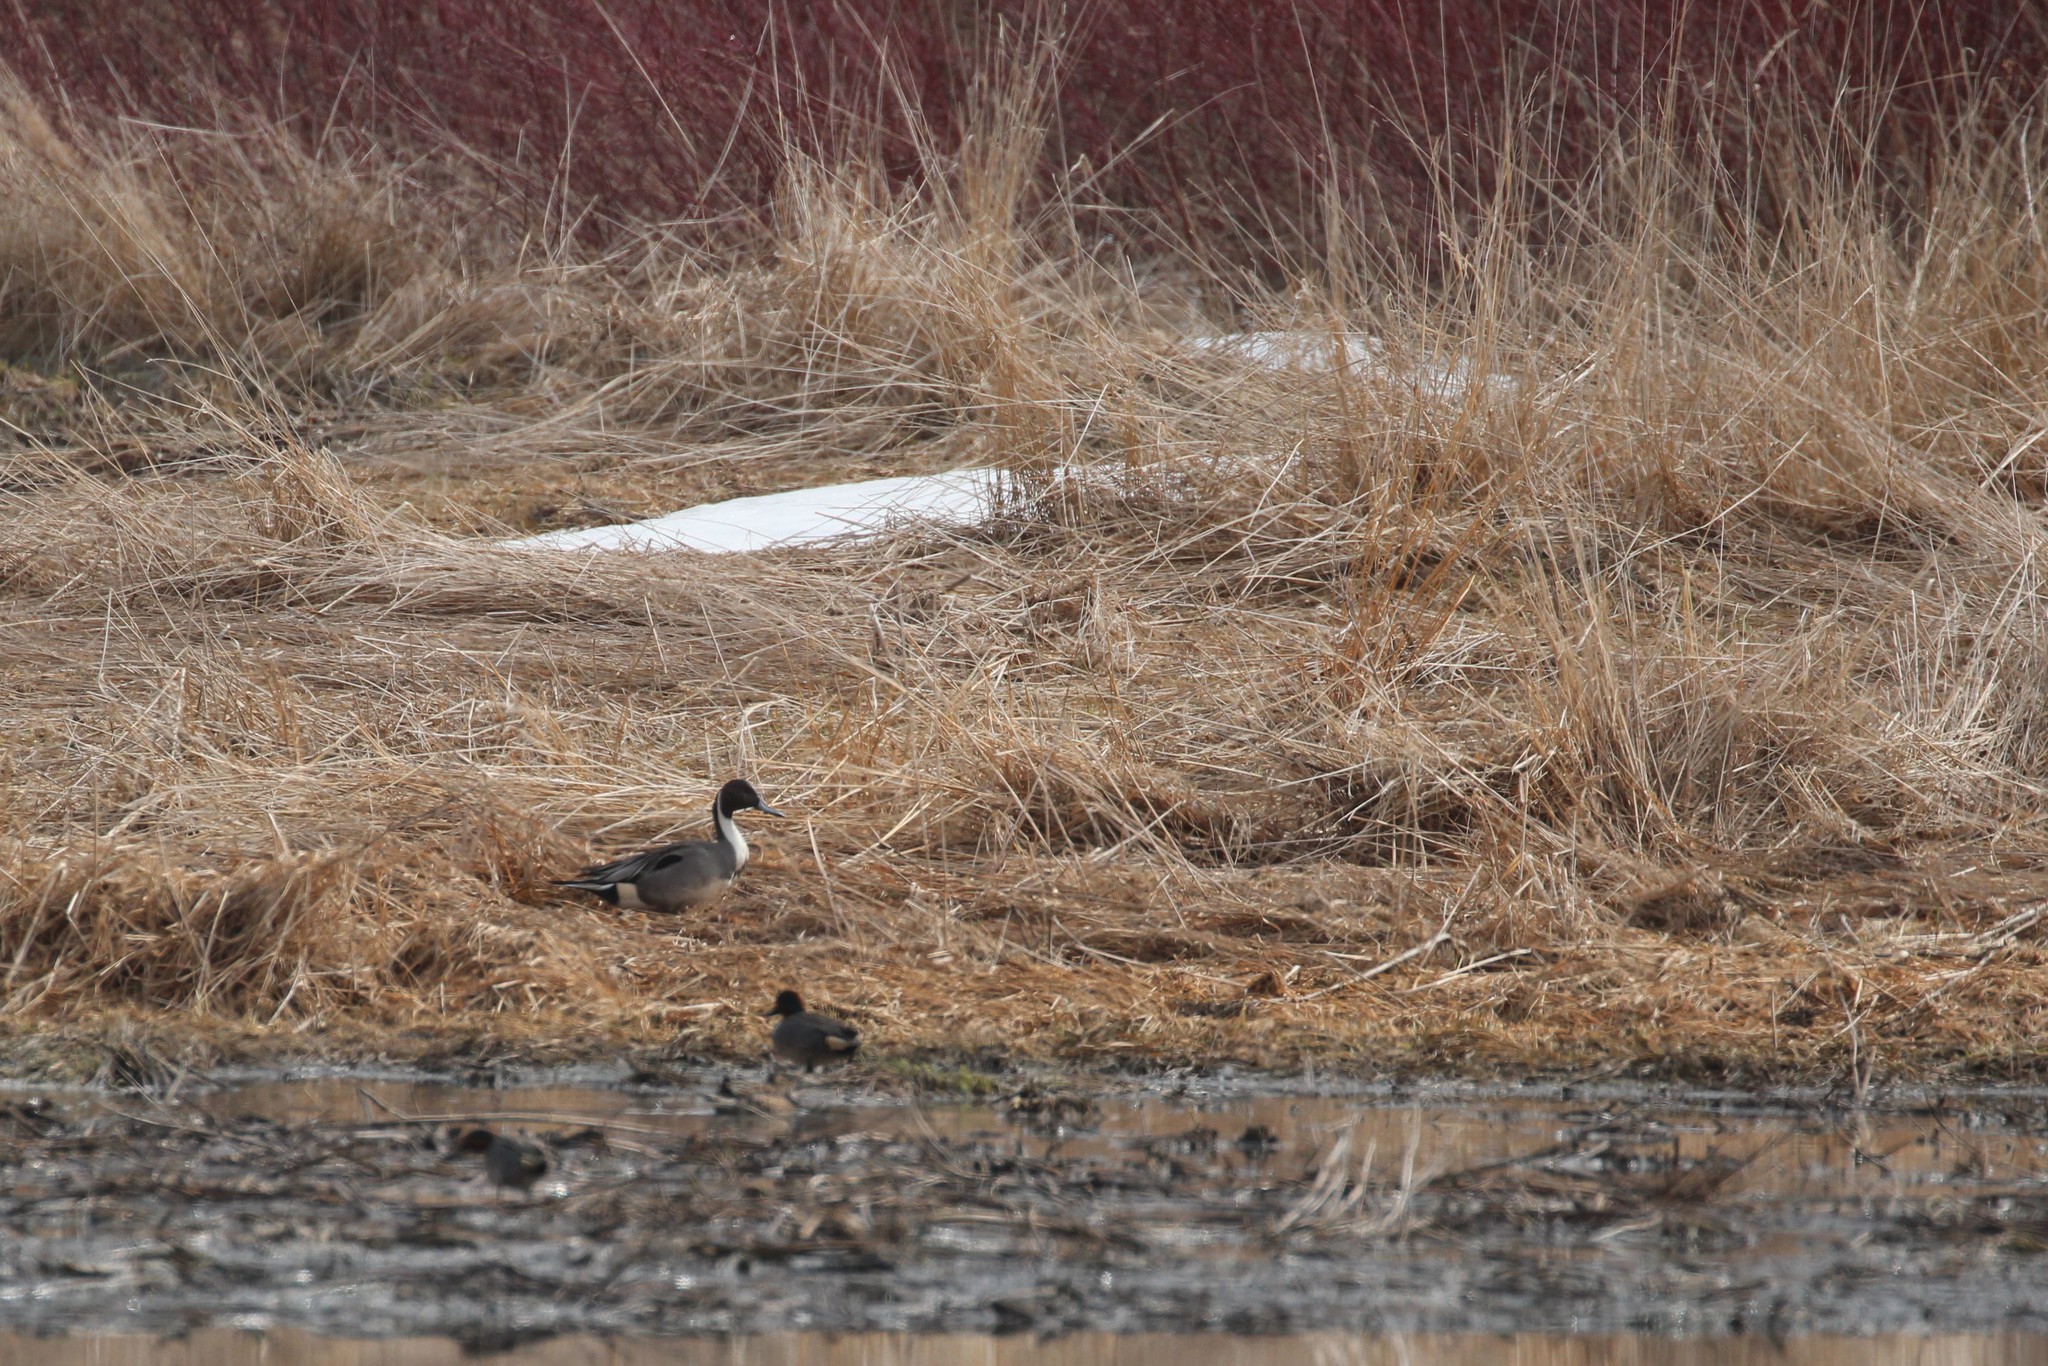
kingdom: Animalia
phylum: Chordata
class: Aves
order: Anseriformes
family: Anatidae
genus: Anas
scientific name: Anas acuta
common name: Northern pintail
